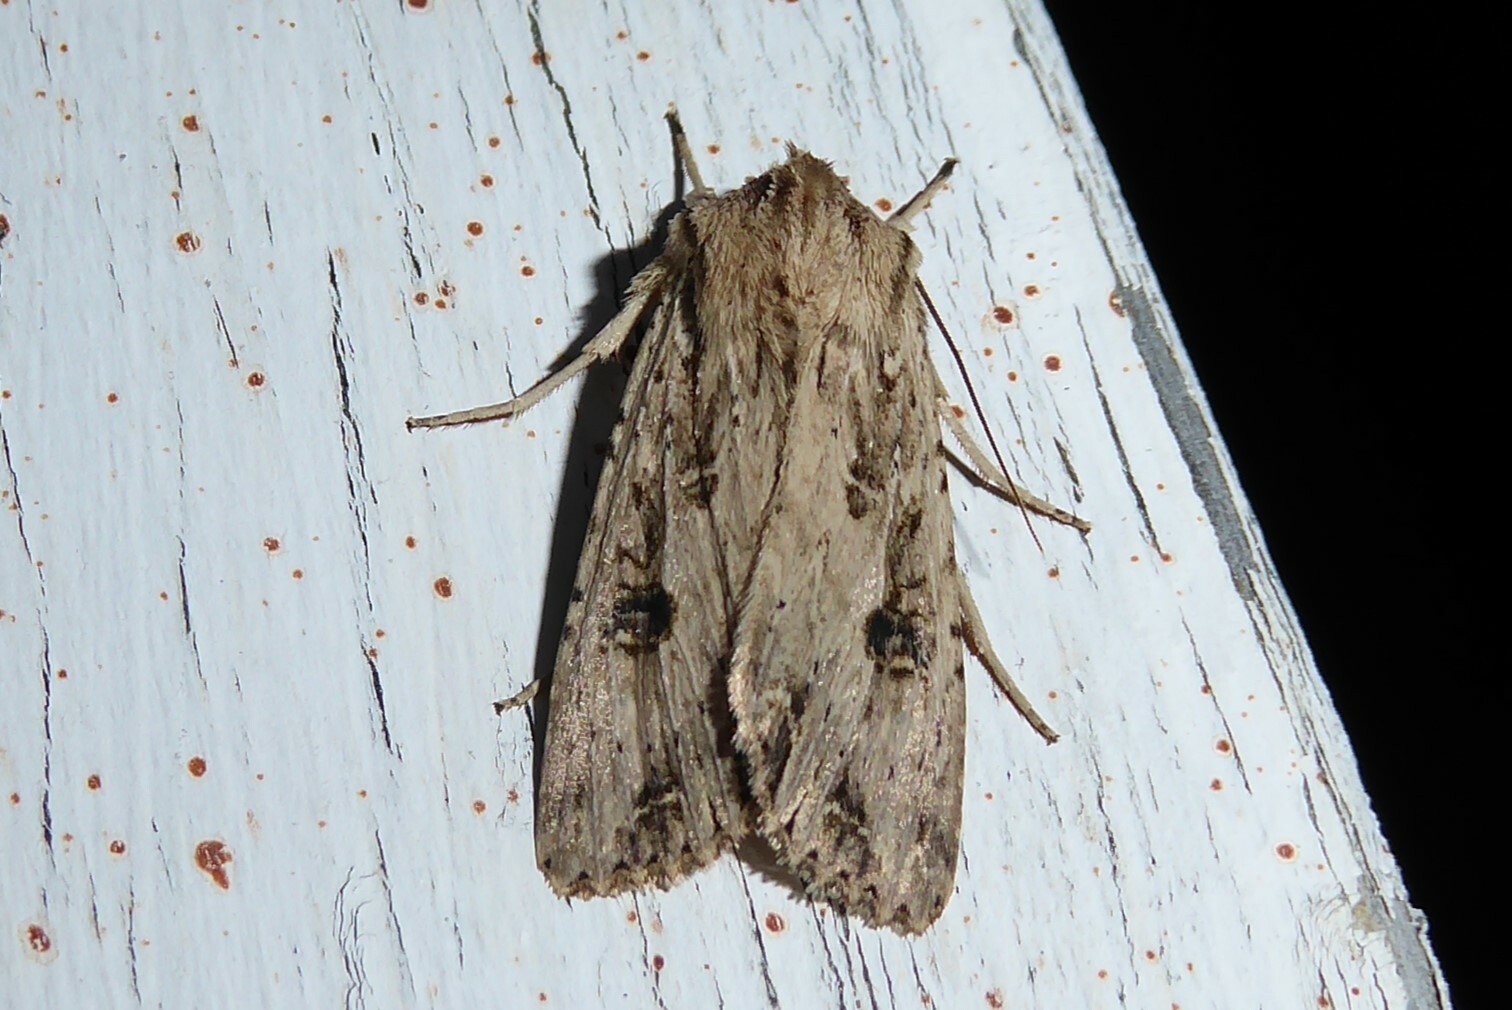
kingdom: Animalia
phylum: Arthropoda
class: Insecta
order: Lepidoptera
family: Noctuidae
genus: Ichneutica
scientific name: Ichneutica lignana
